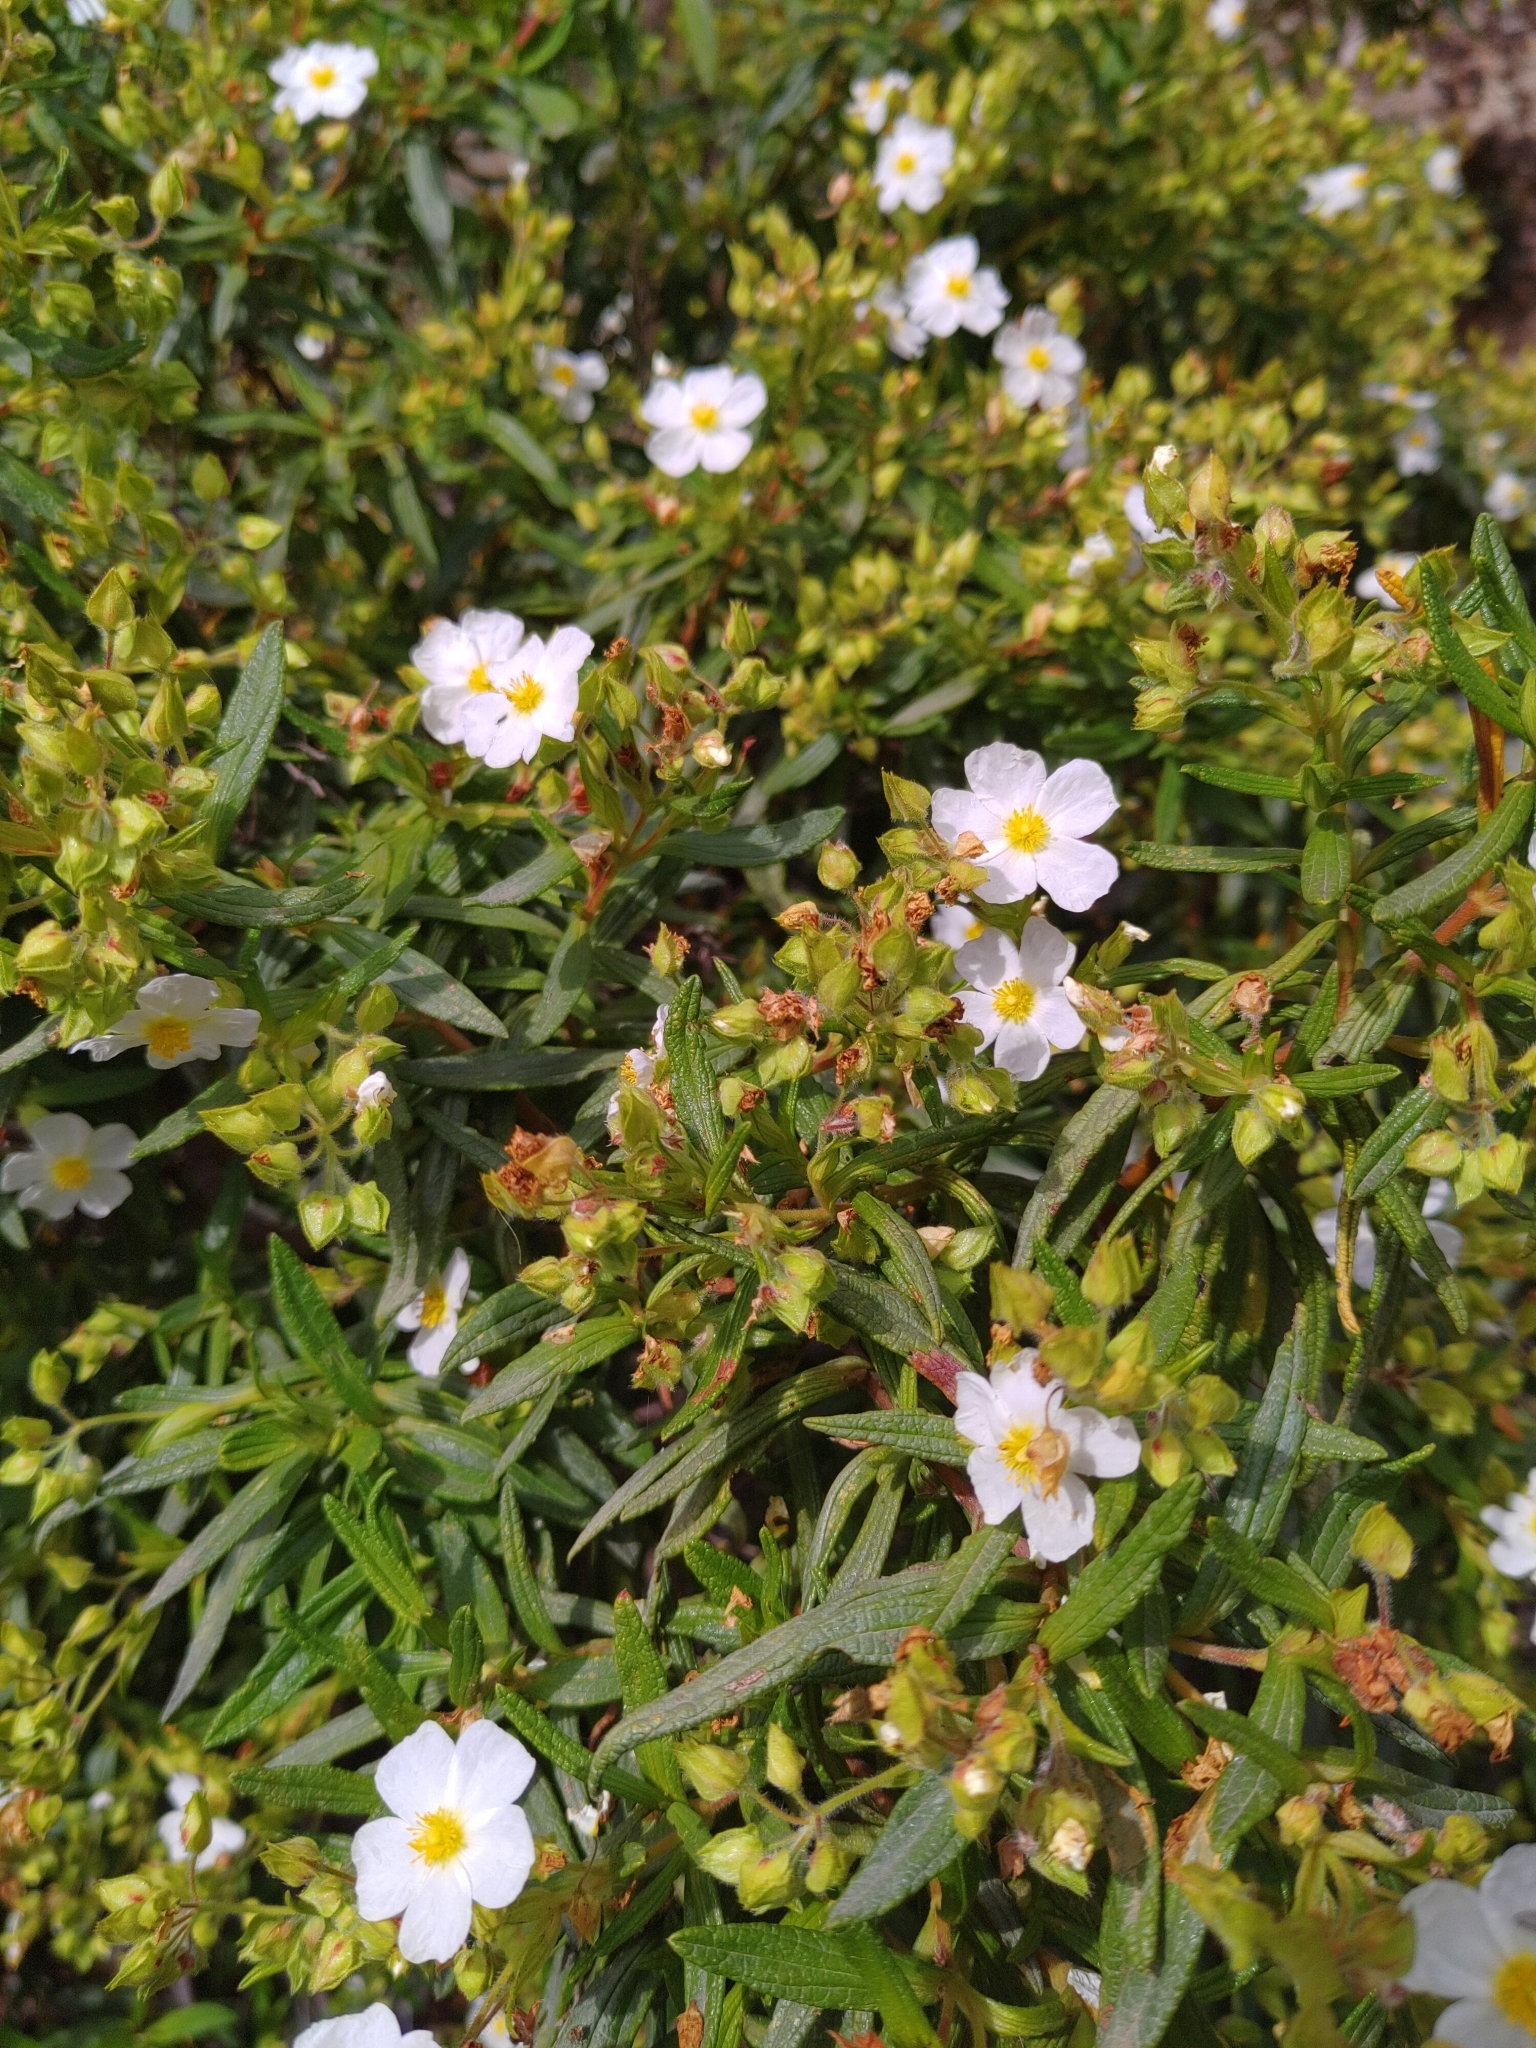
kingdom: Plantae
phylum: Tracheophyta
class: Magnoliopsida
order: Malvales
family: Cistaceae
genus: Cistus
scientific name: Cistus monspeliensis
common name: Montpelier cistus
